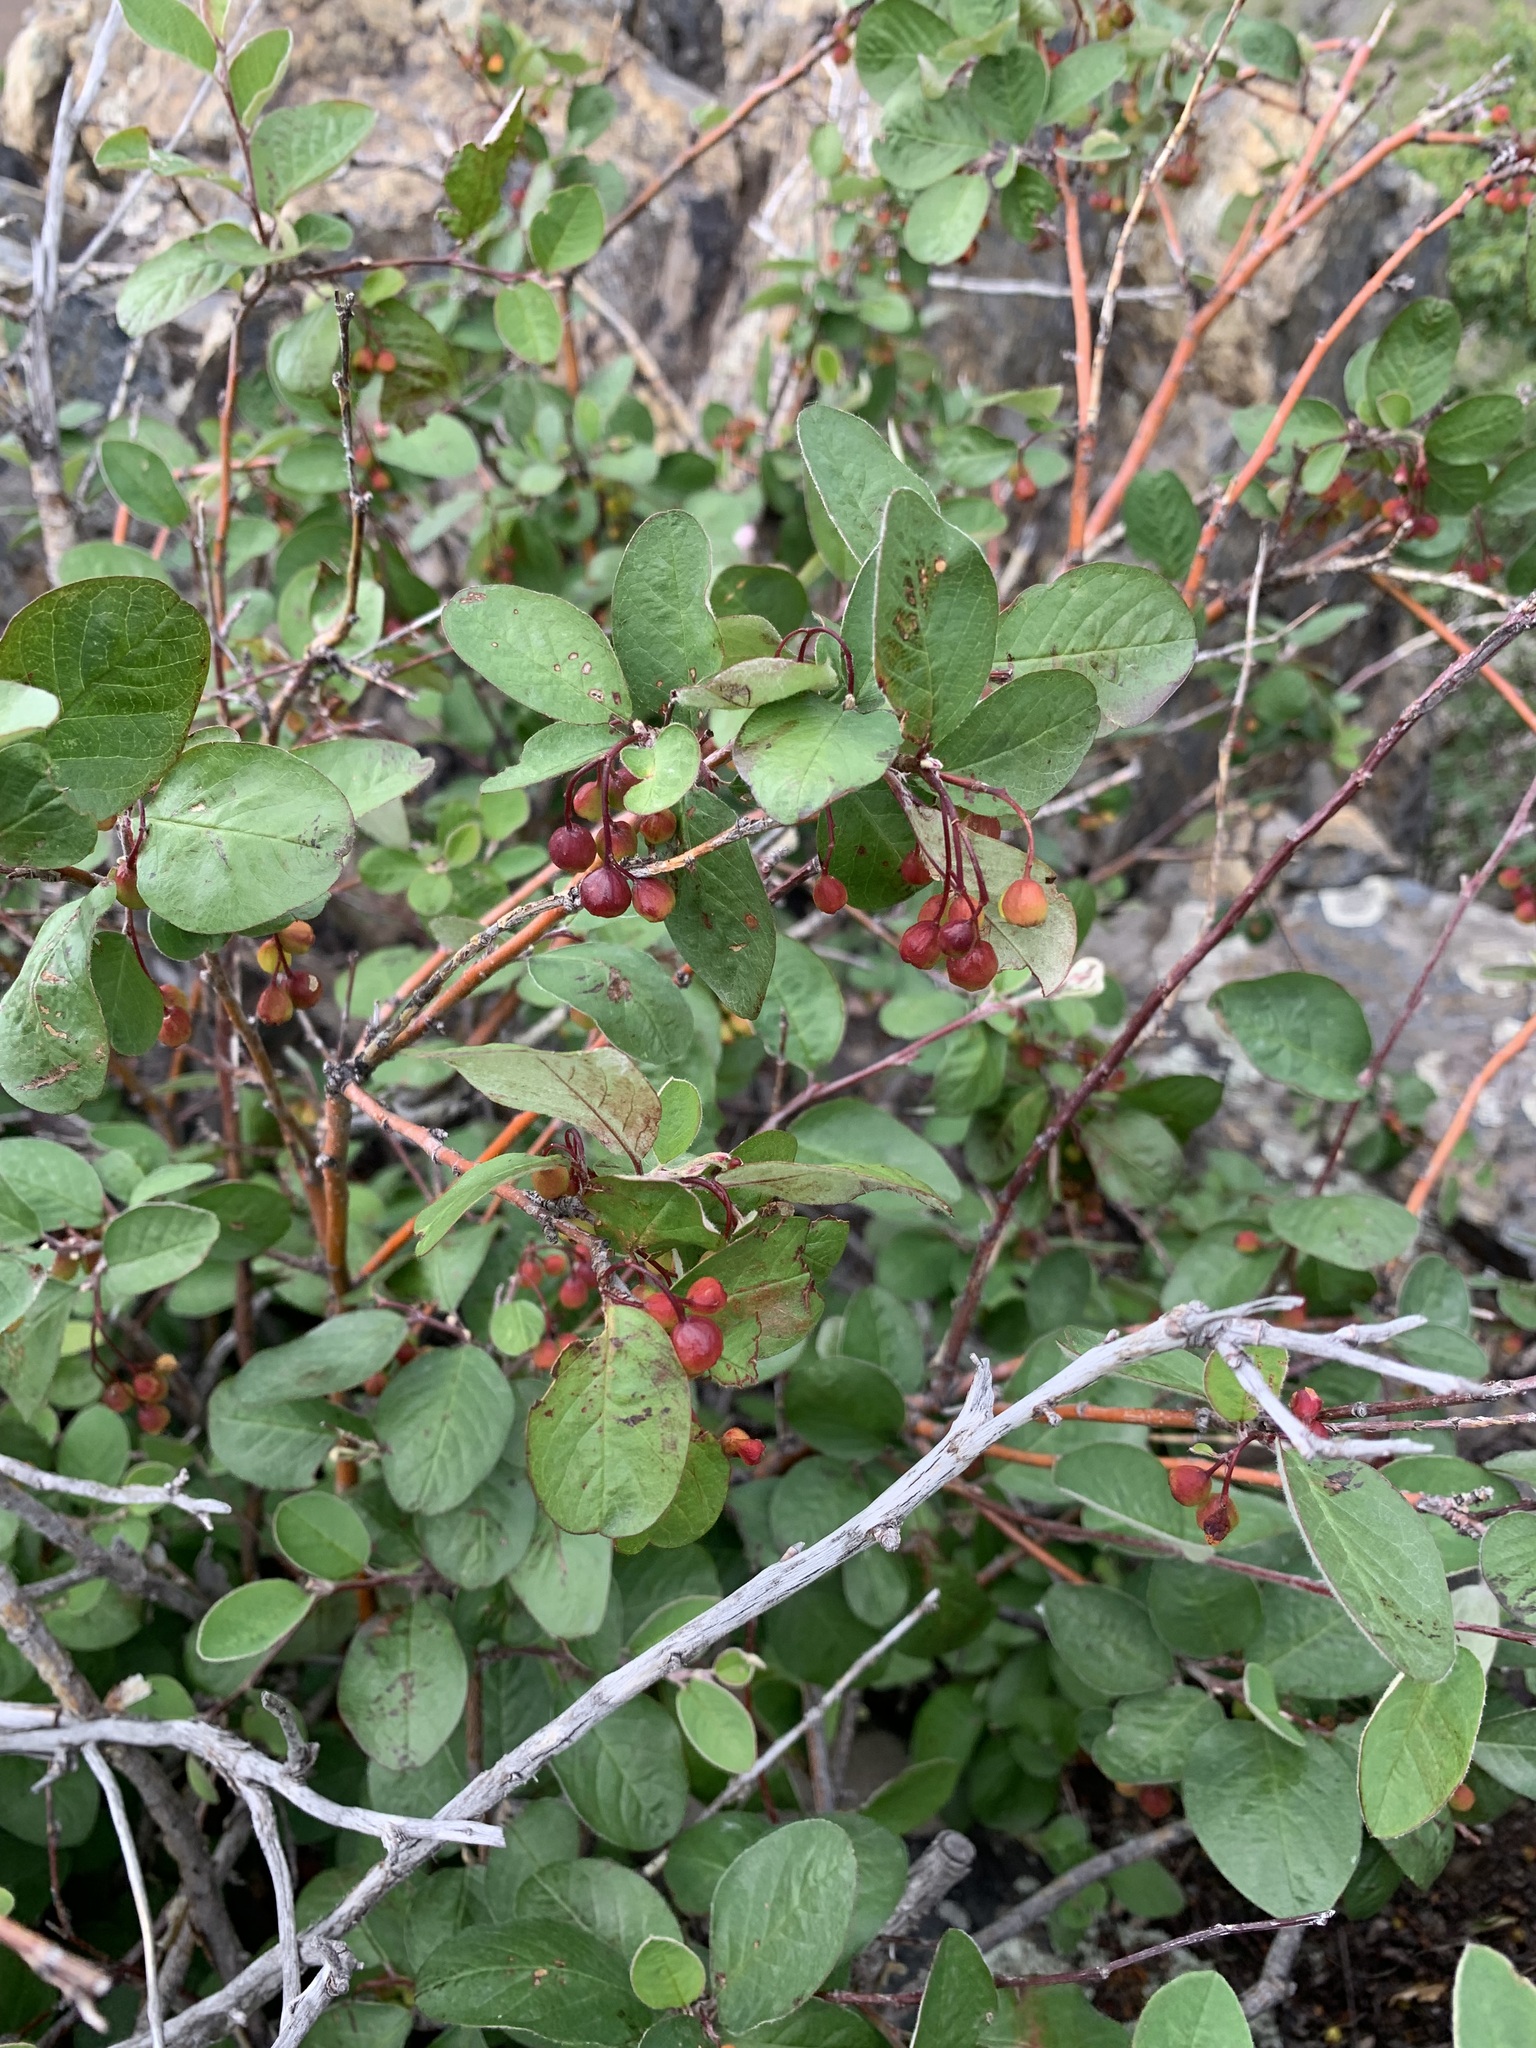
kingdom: Plantae
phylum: Tracheophyta
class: Magnoliopsida
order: Rosales
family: Rosaceae
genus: Cotoneaster
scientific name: Cotoneaster melanocarpus
